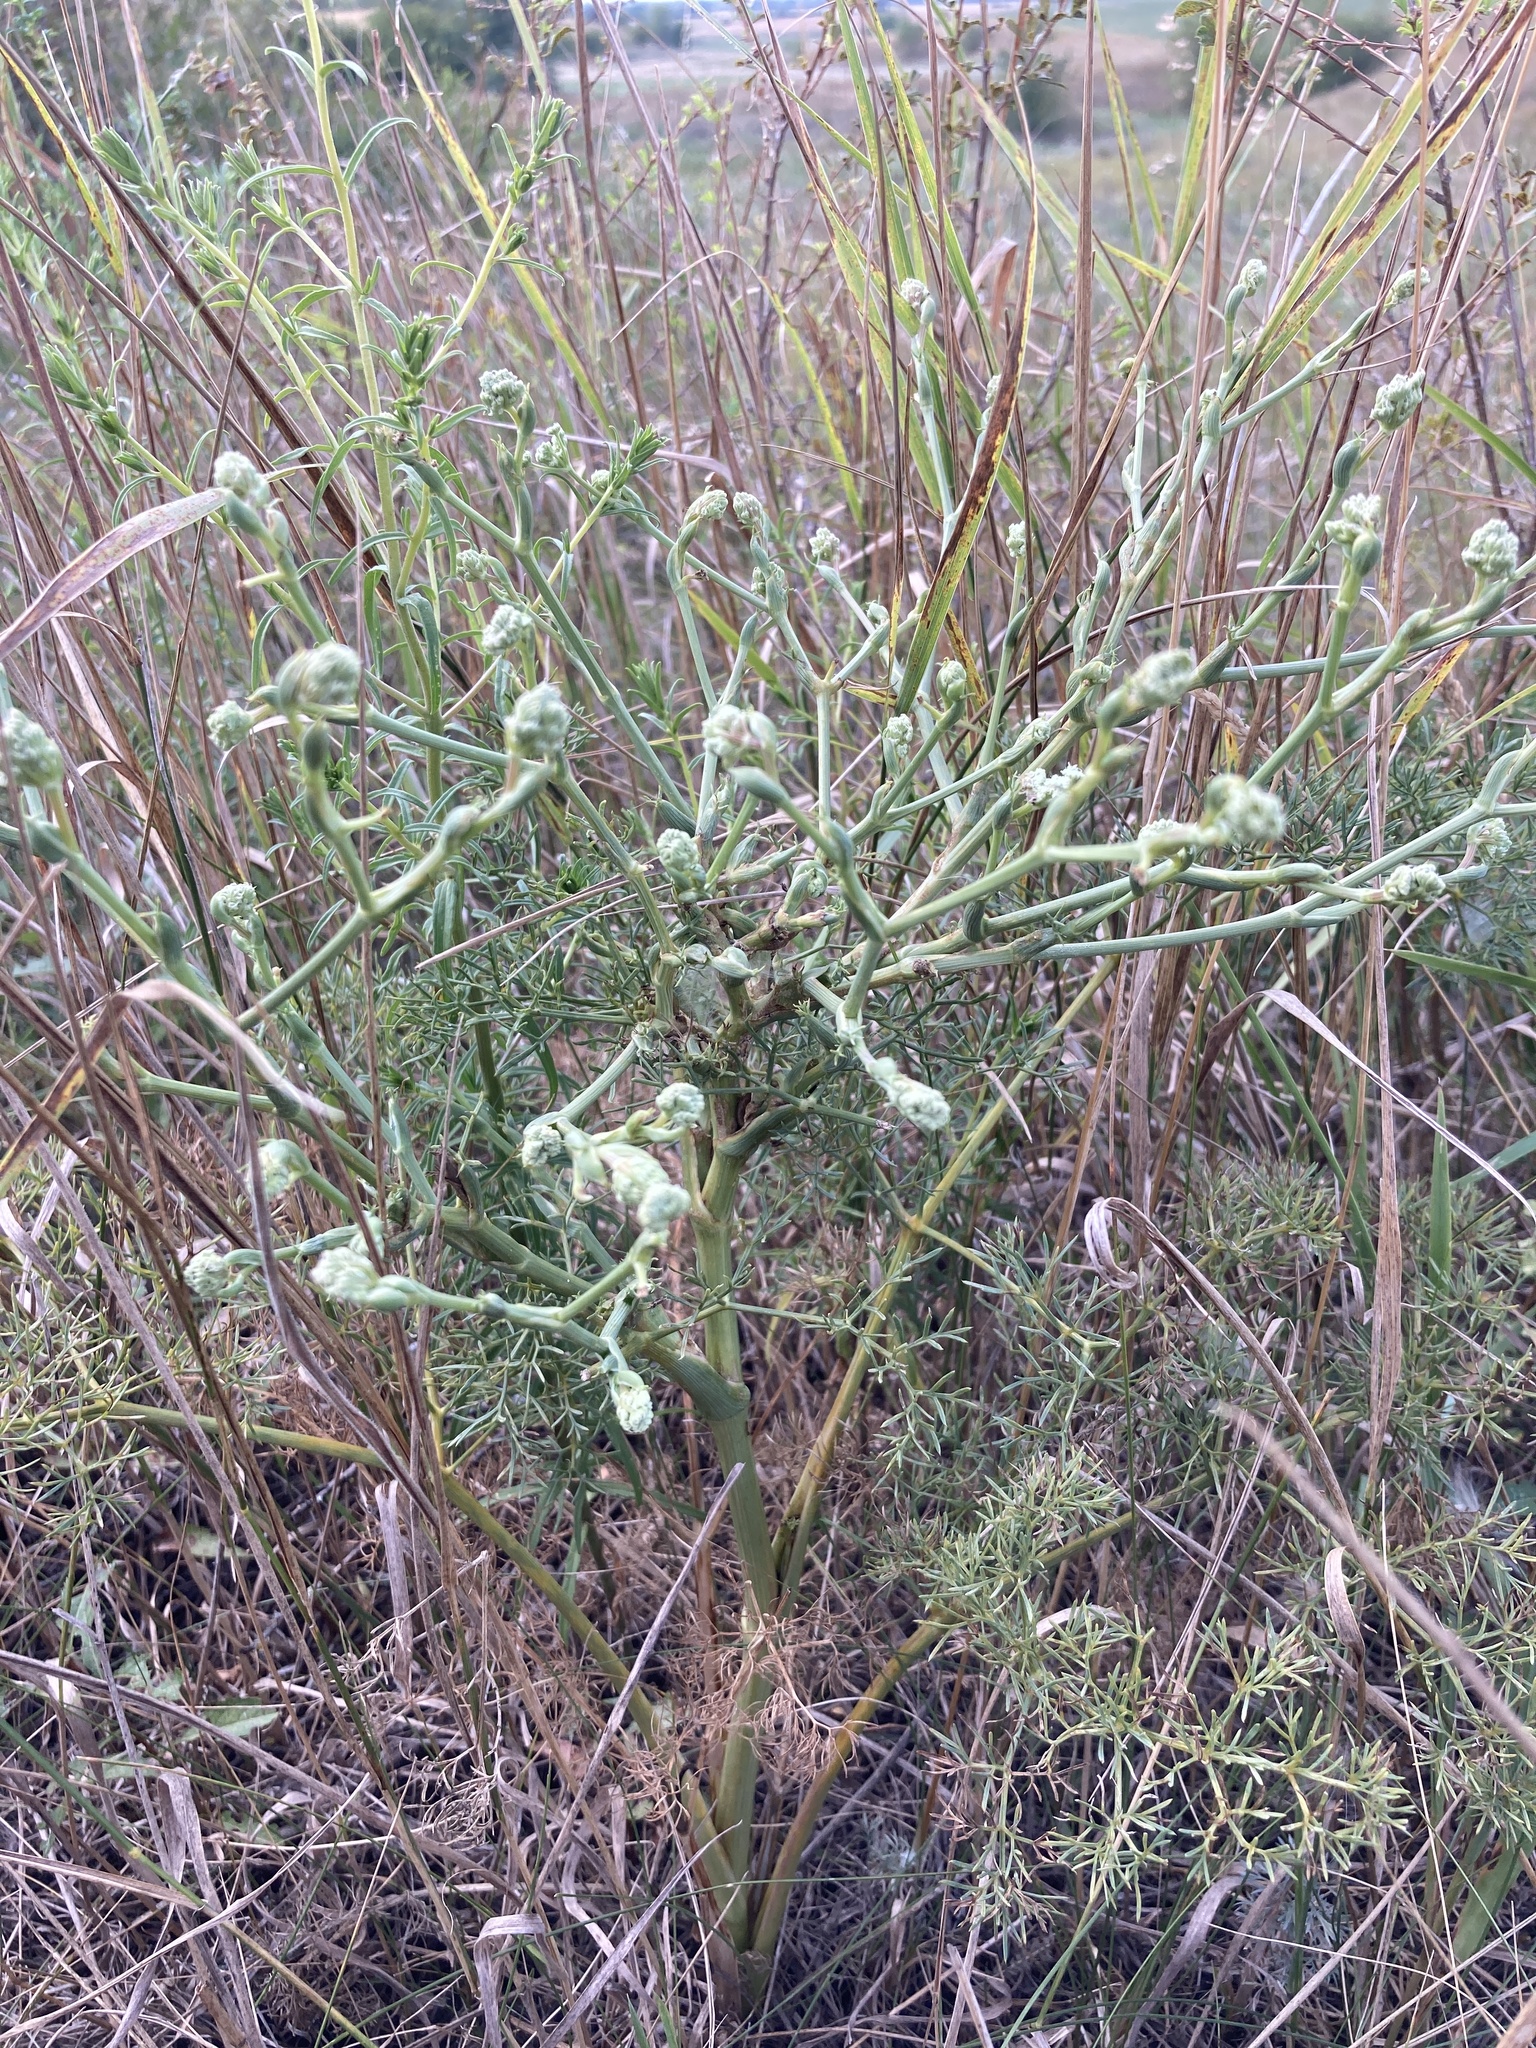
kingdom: Plantae
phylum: Tracheophyta
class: Magnoliopsida
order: Apiales
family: Apiaceae
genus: Seseli
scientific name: Seseli arenarium
